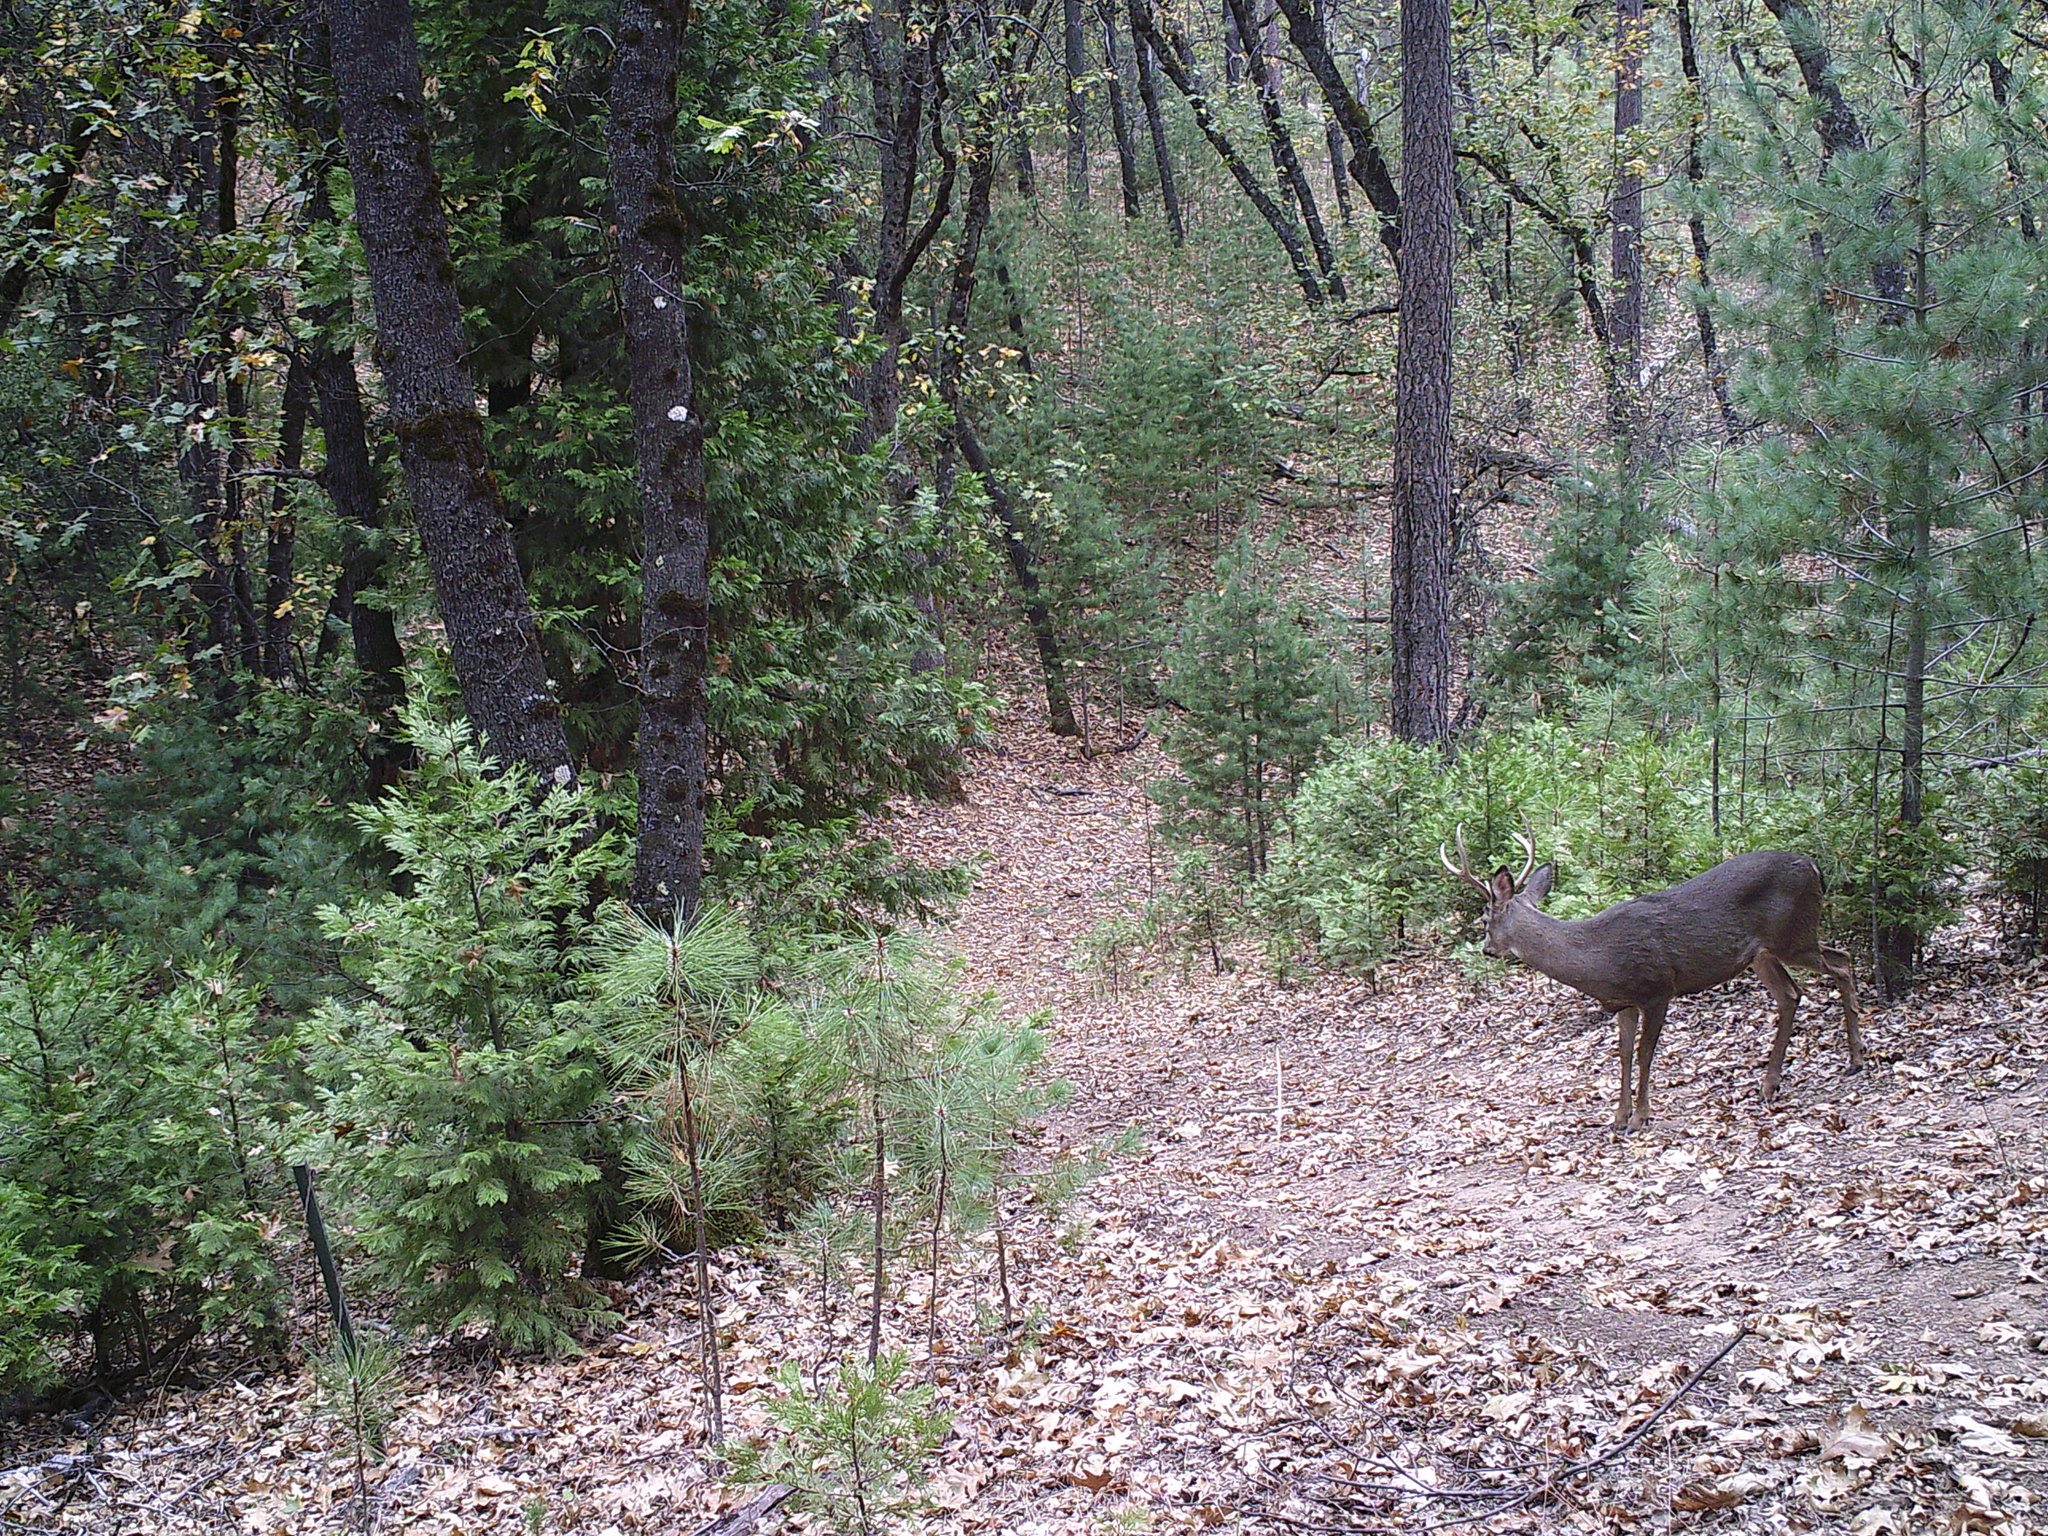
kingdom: Animalia
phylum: Chordata
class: Mammalia
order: Artiodactyla
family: Cervidae
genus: Odocoileus
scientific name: Odocoileus hemionus
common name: Mule deer
